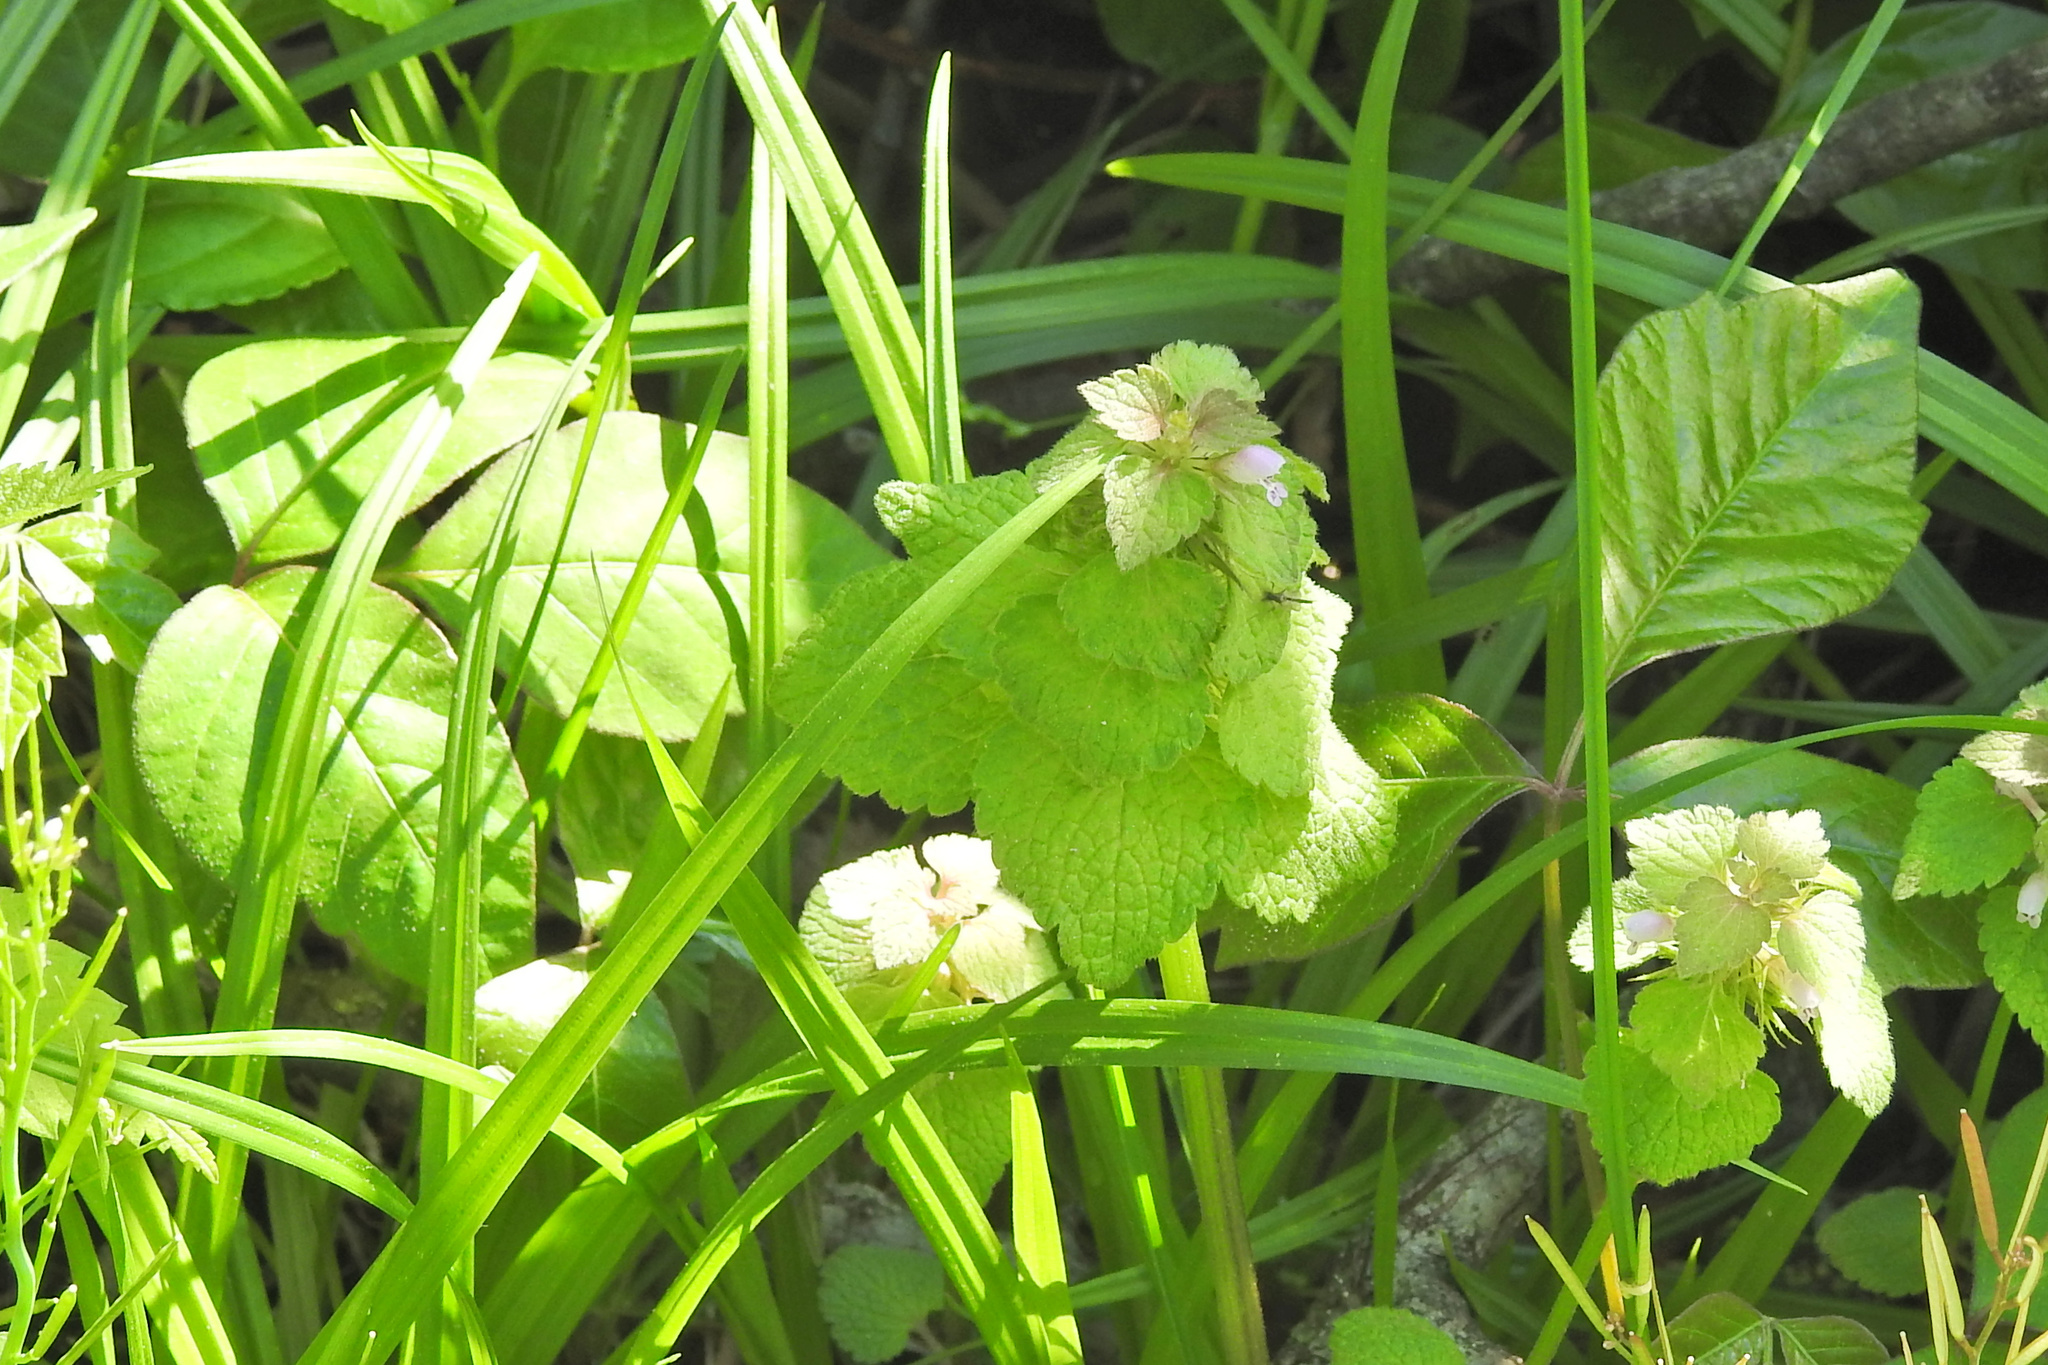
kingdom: Plantae
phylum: Tracheophyta
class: Magnoliopsida
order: Lamiales
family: Lamiaceae
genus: Lamium
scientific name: Lamium purpureum
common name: Red dead-nettle
